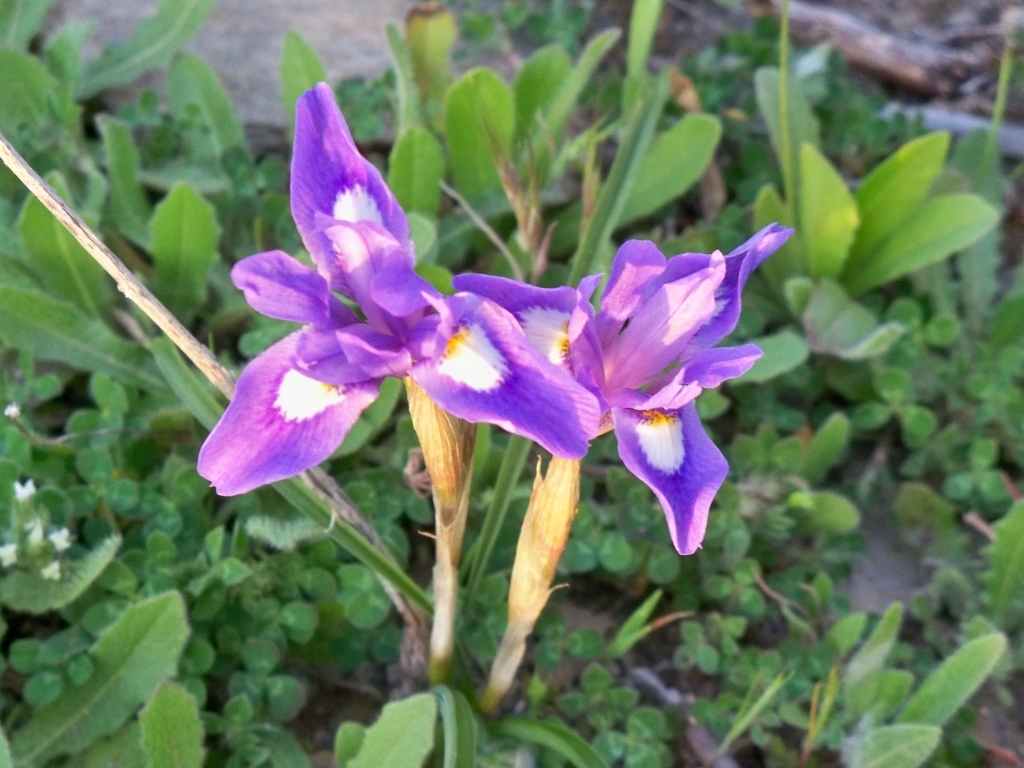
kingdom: Plantae
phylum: Tracheophyta
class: Liliopsida
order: Asparagales
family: Iridaceae
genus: Moraea
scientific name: Moraea sisyrinchium
